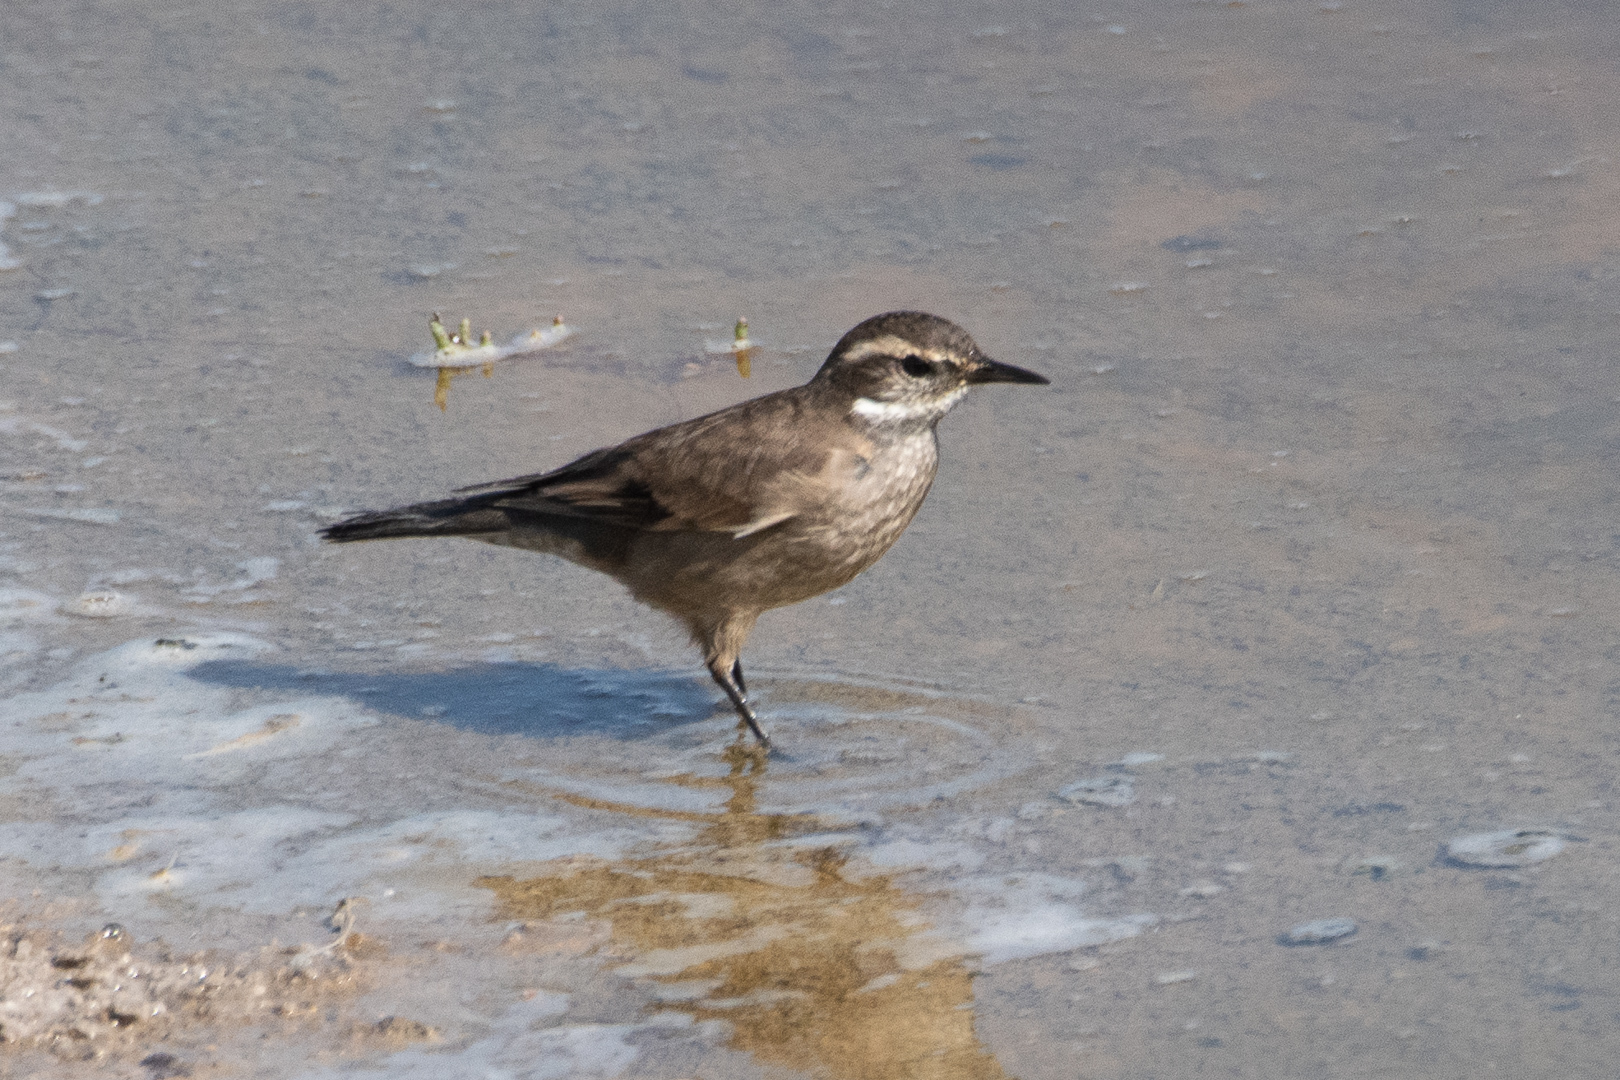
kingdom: Animalia
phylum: Chordata
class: Aves
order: Passeriformes
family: Furnariidae
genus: Cinclodes
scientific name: Cinclodes fuscus
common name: Buff-winged cinclodes
